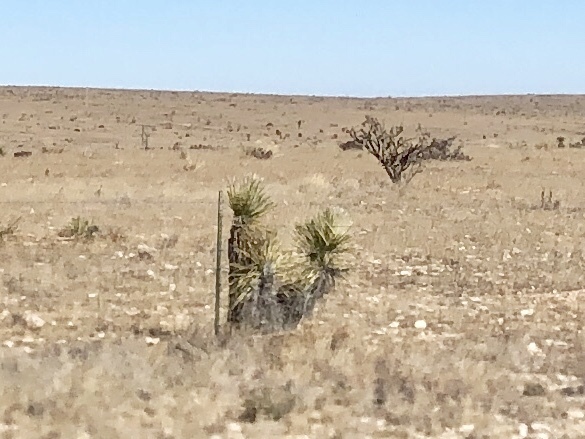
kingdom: Plantae
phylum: Tracheophyta
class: Liliopsida
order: Asparagales
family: Asparagaceae
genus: Yucca
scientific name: Yucca elata
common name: Palmella
